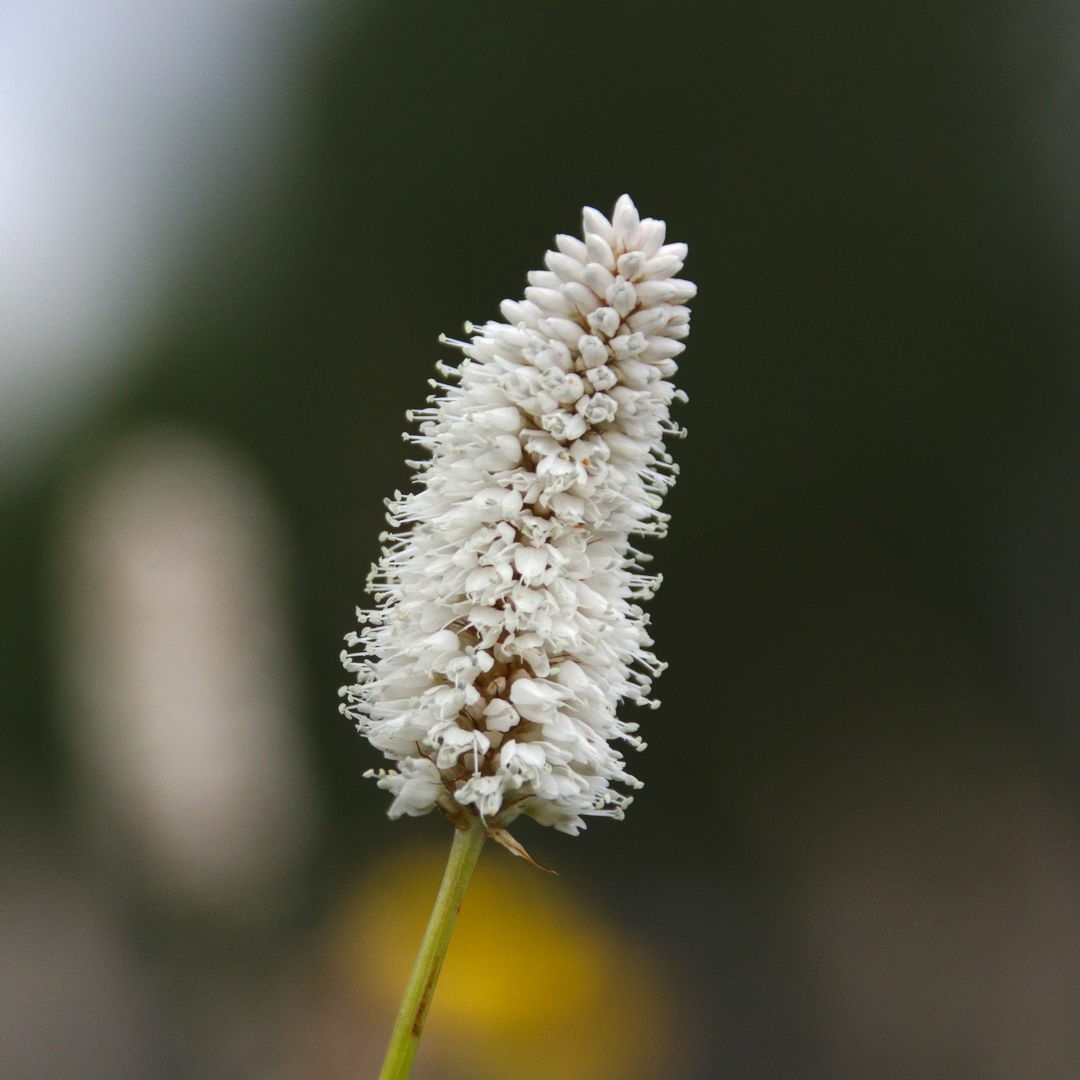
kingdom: Plantae
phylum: Tracheophyta
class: Magnoliopsida
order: Caryophyllales
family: Polygonaceae
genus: Bistorta
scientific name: Bistorta officinalis
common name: Common bistort
